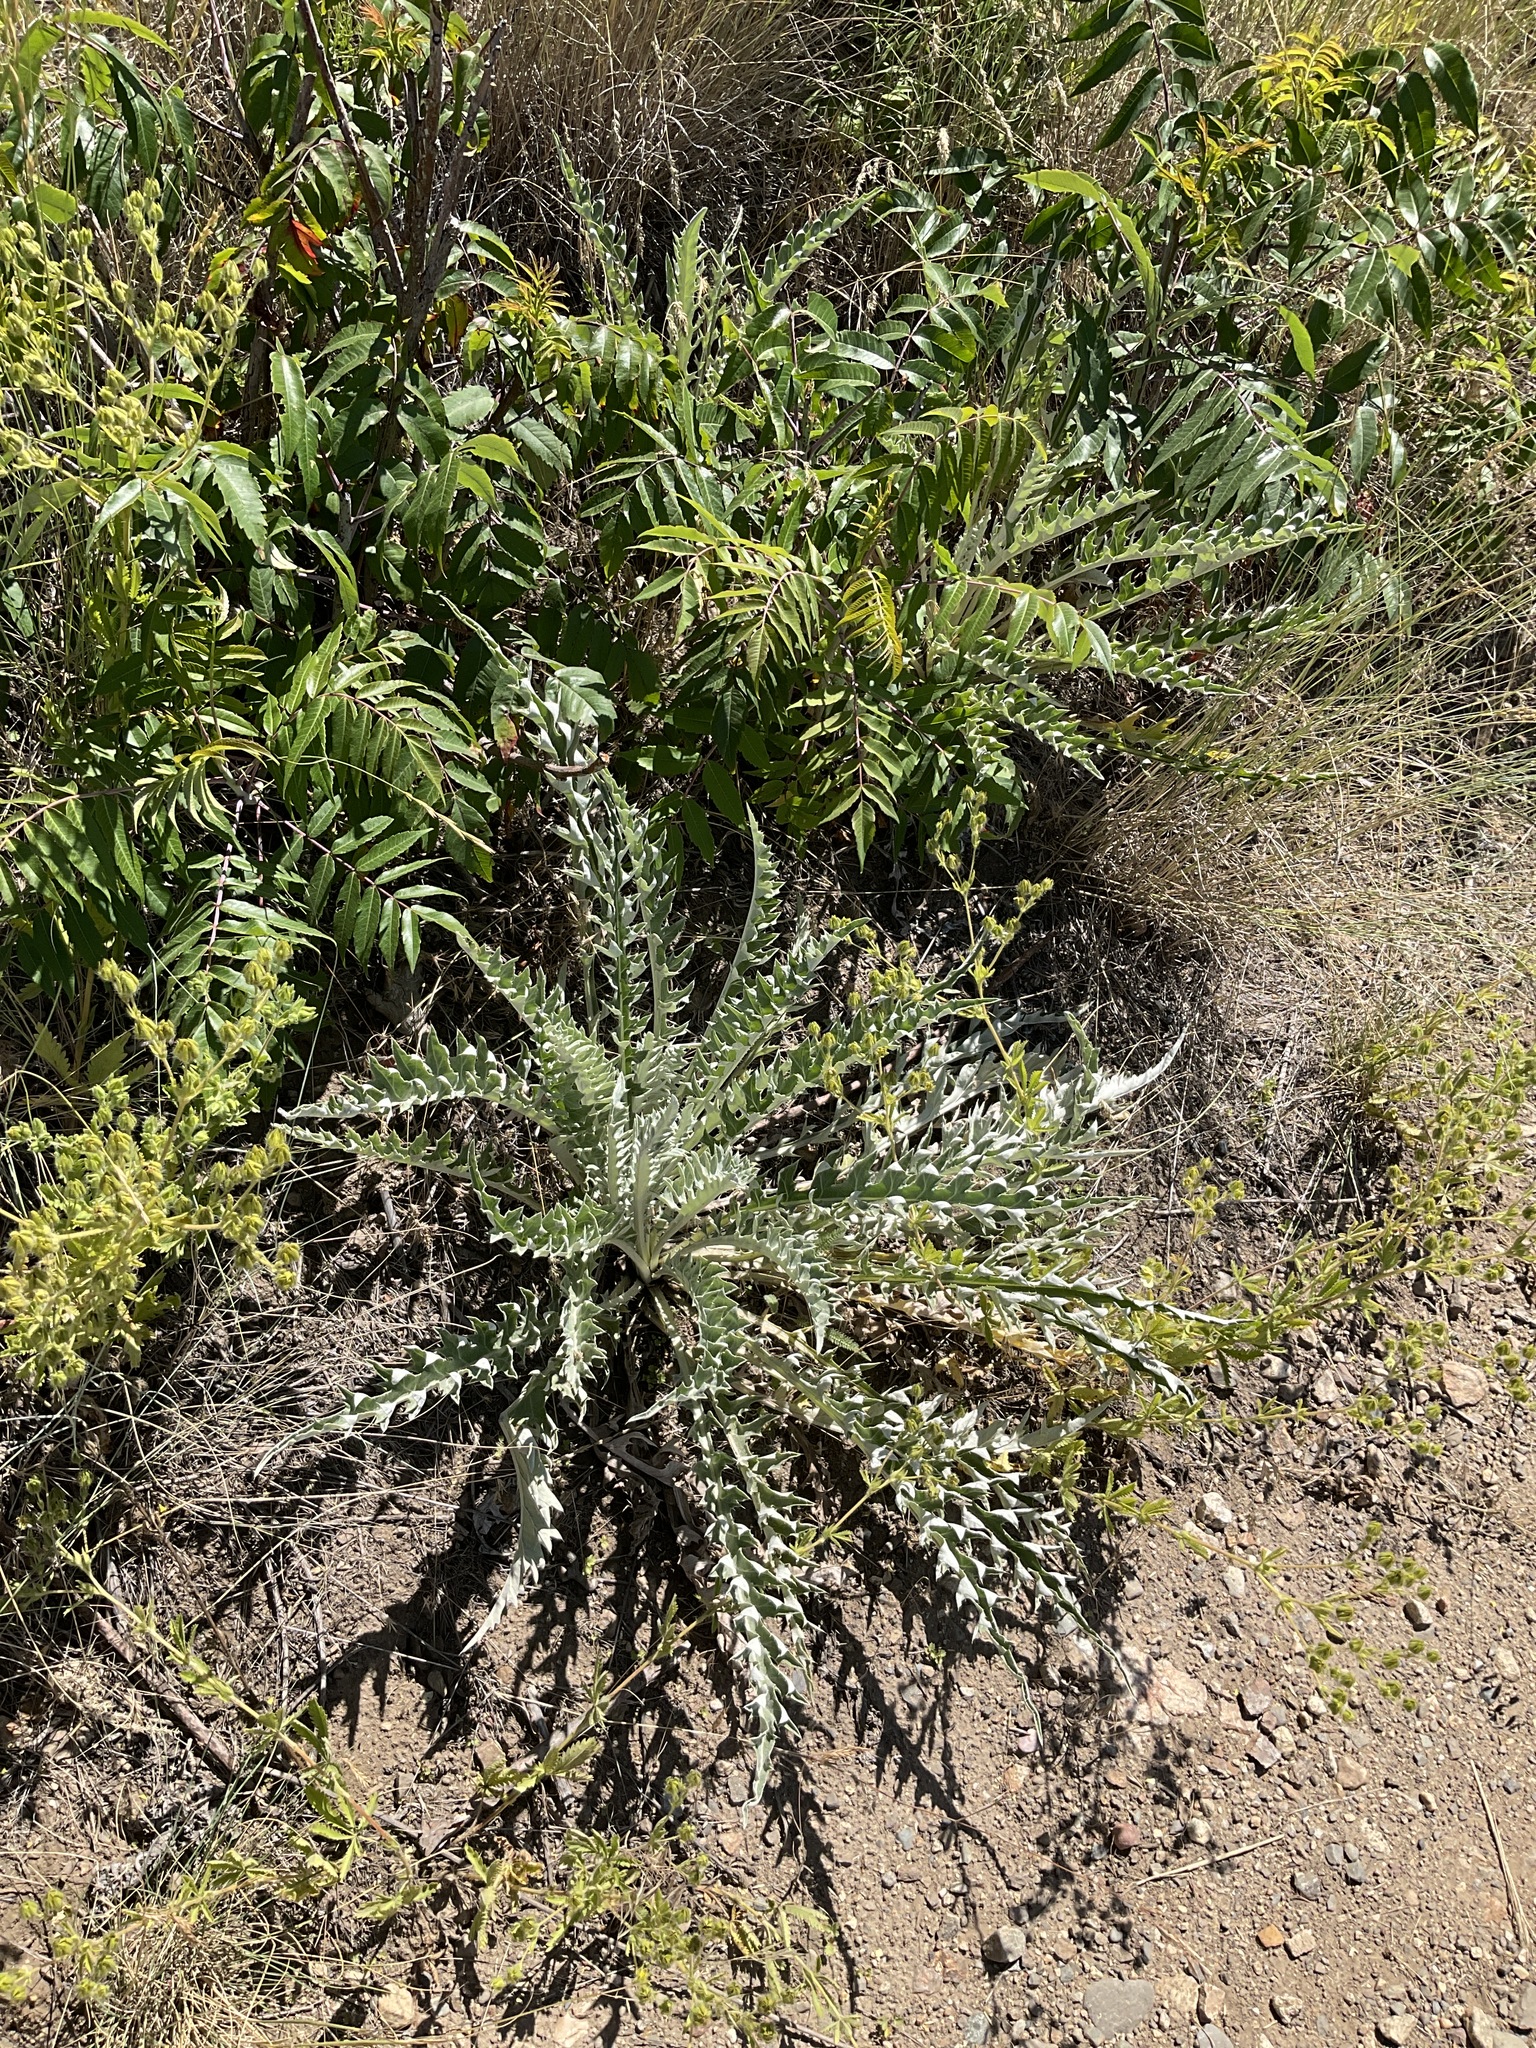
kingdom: Plantae
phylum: Tracheophyta
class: Magnoliopsida
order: Asterales
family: Asteraceae
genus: Cirsium
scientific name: Cirsium undulatum
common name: Pasture thistle
